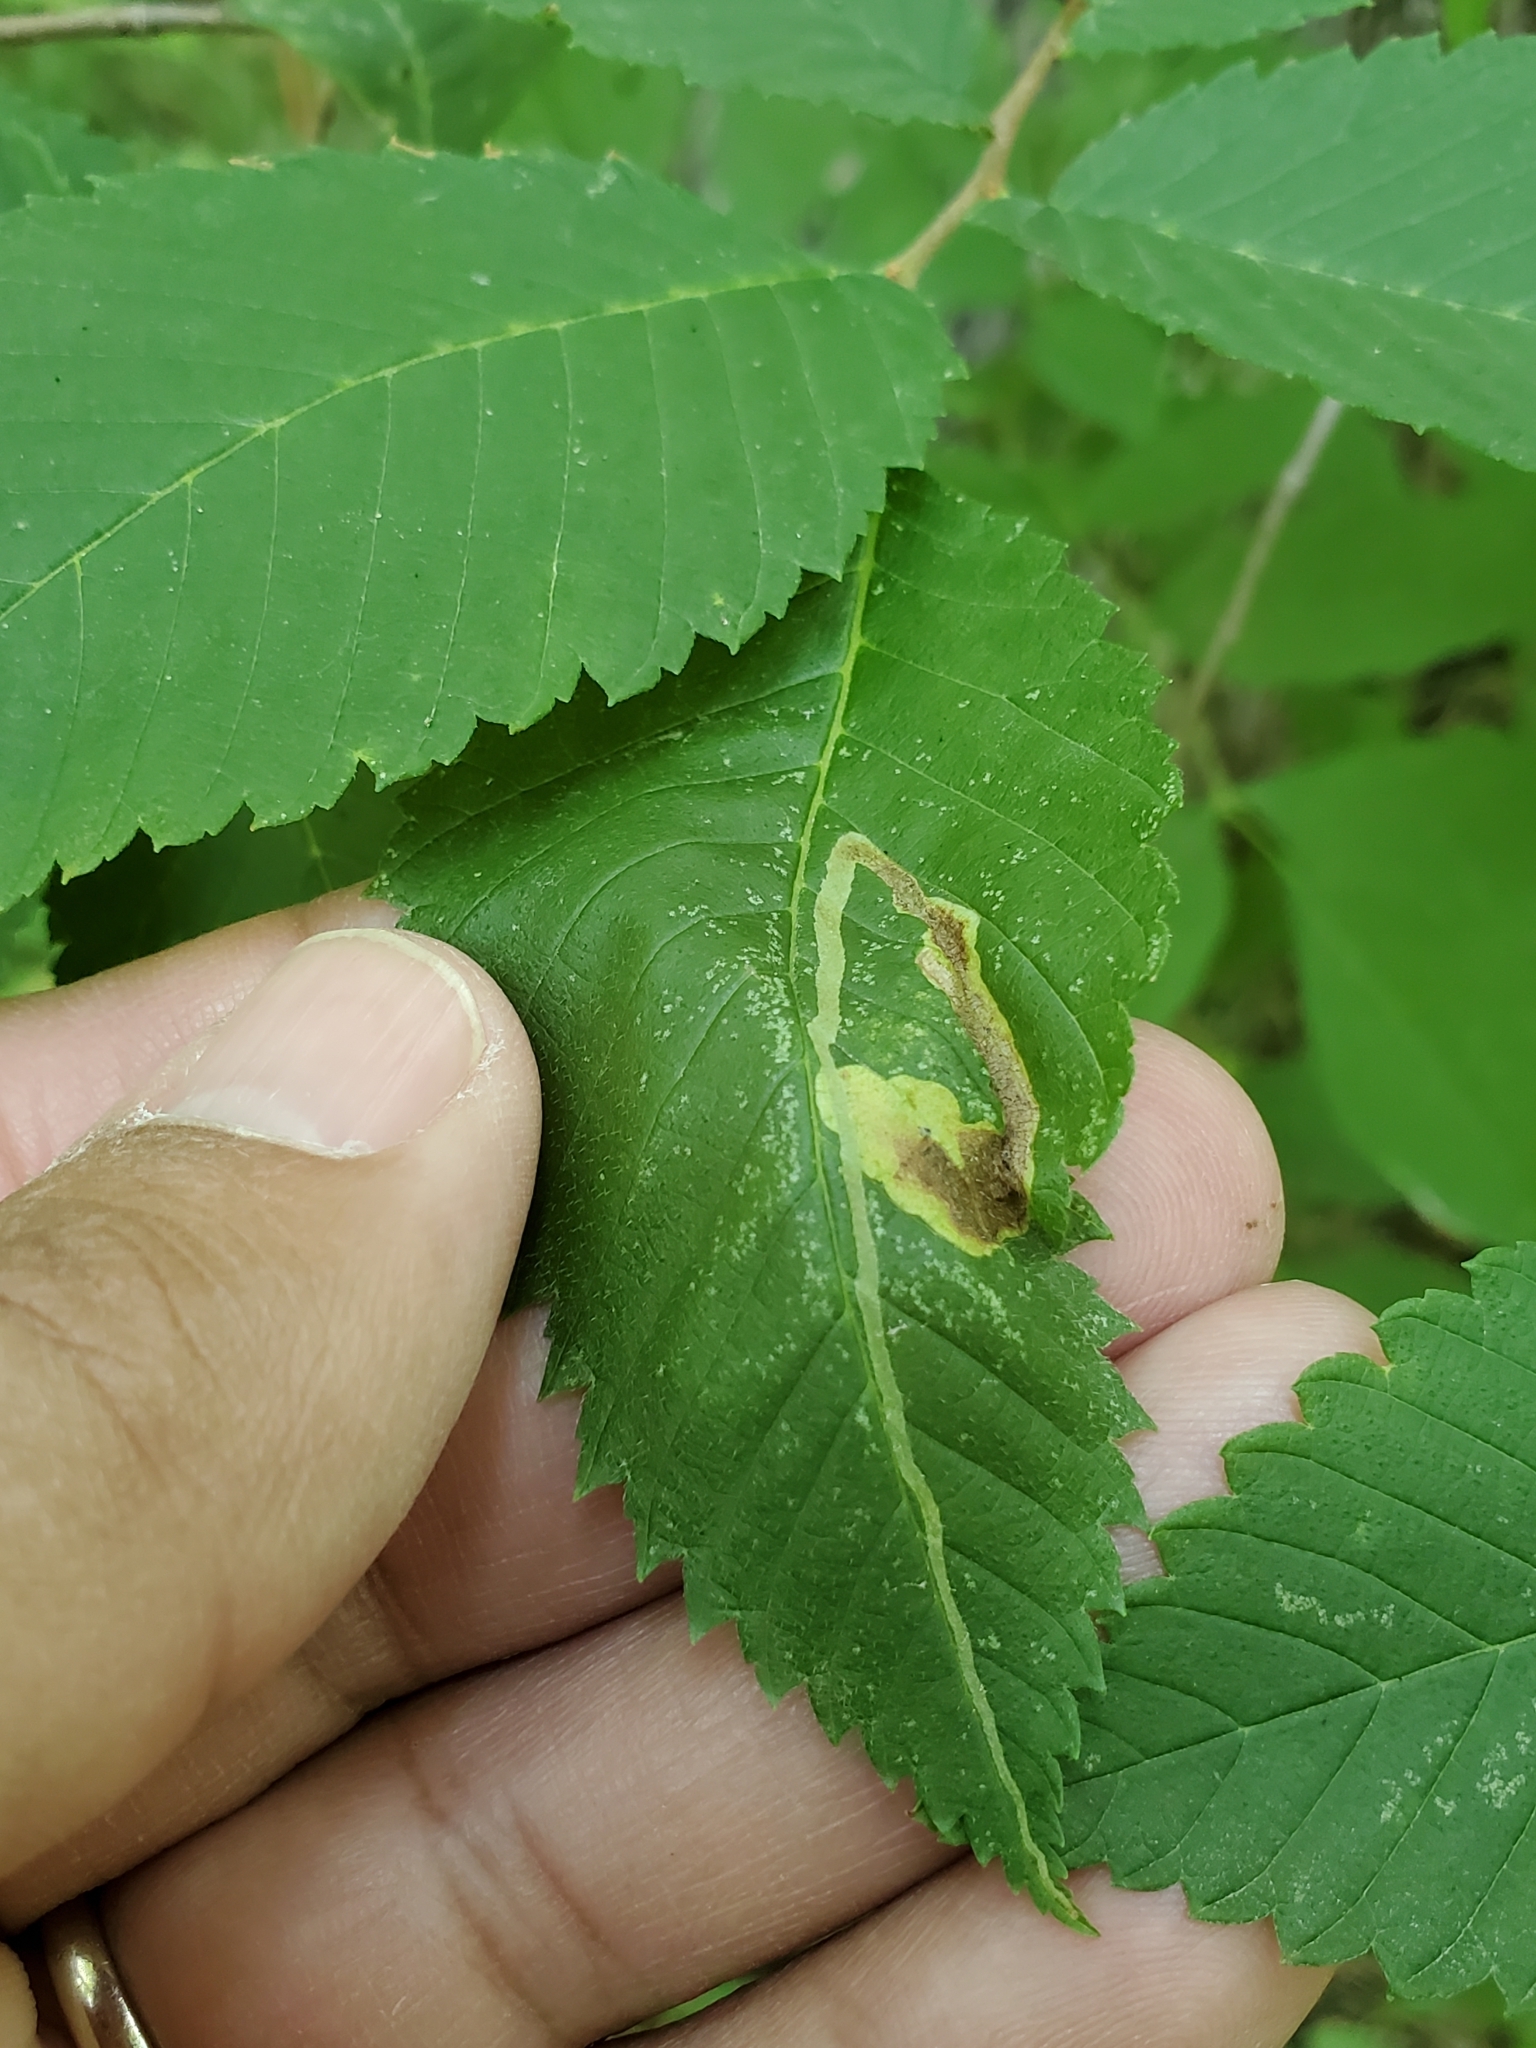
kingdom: Animalia
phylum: Arthropoda
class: Insecta
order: Diptera
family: Agromyzidae
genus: Agromyza
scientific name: Agromyza aristata
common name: Elm agromyzid leafminer
